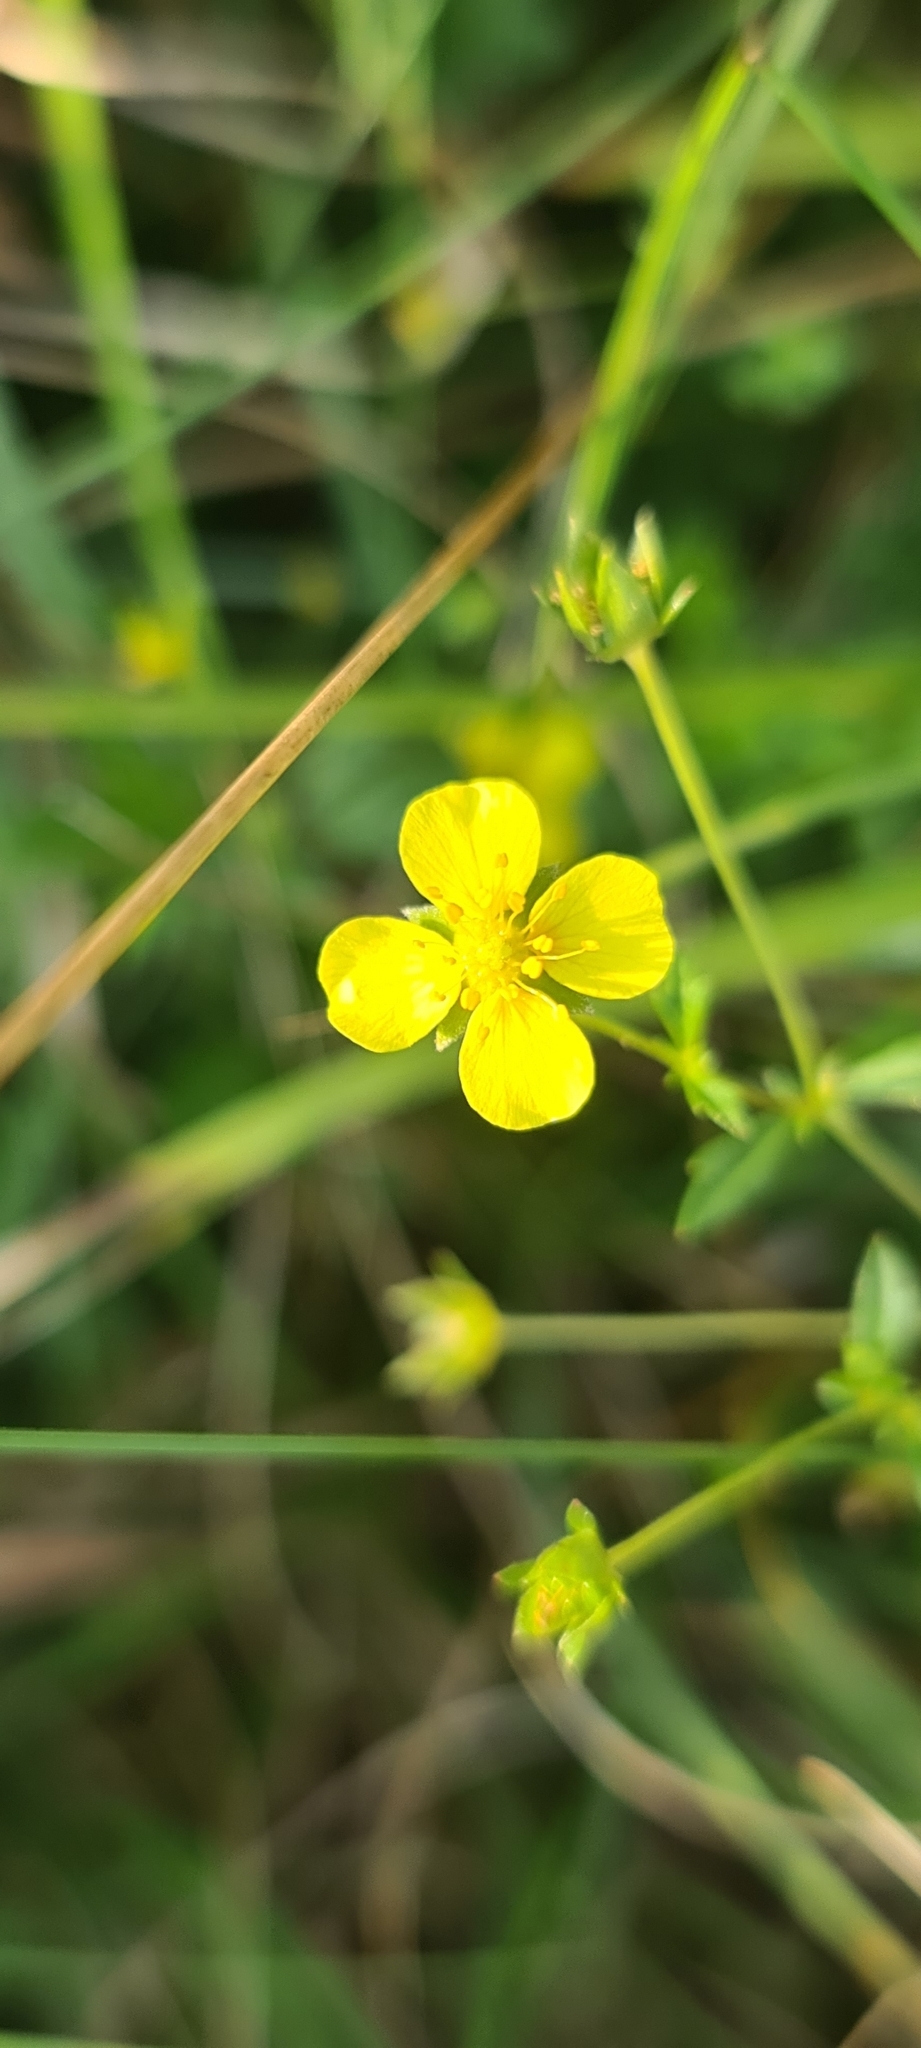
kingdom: Plantae
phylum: Tracheophyta
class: Magnoliopsida
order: Rosales
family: Rosaceae
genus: Potentilla
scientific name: Potentilla erecta
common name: Tormentil
